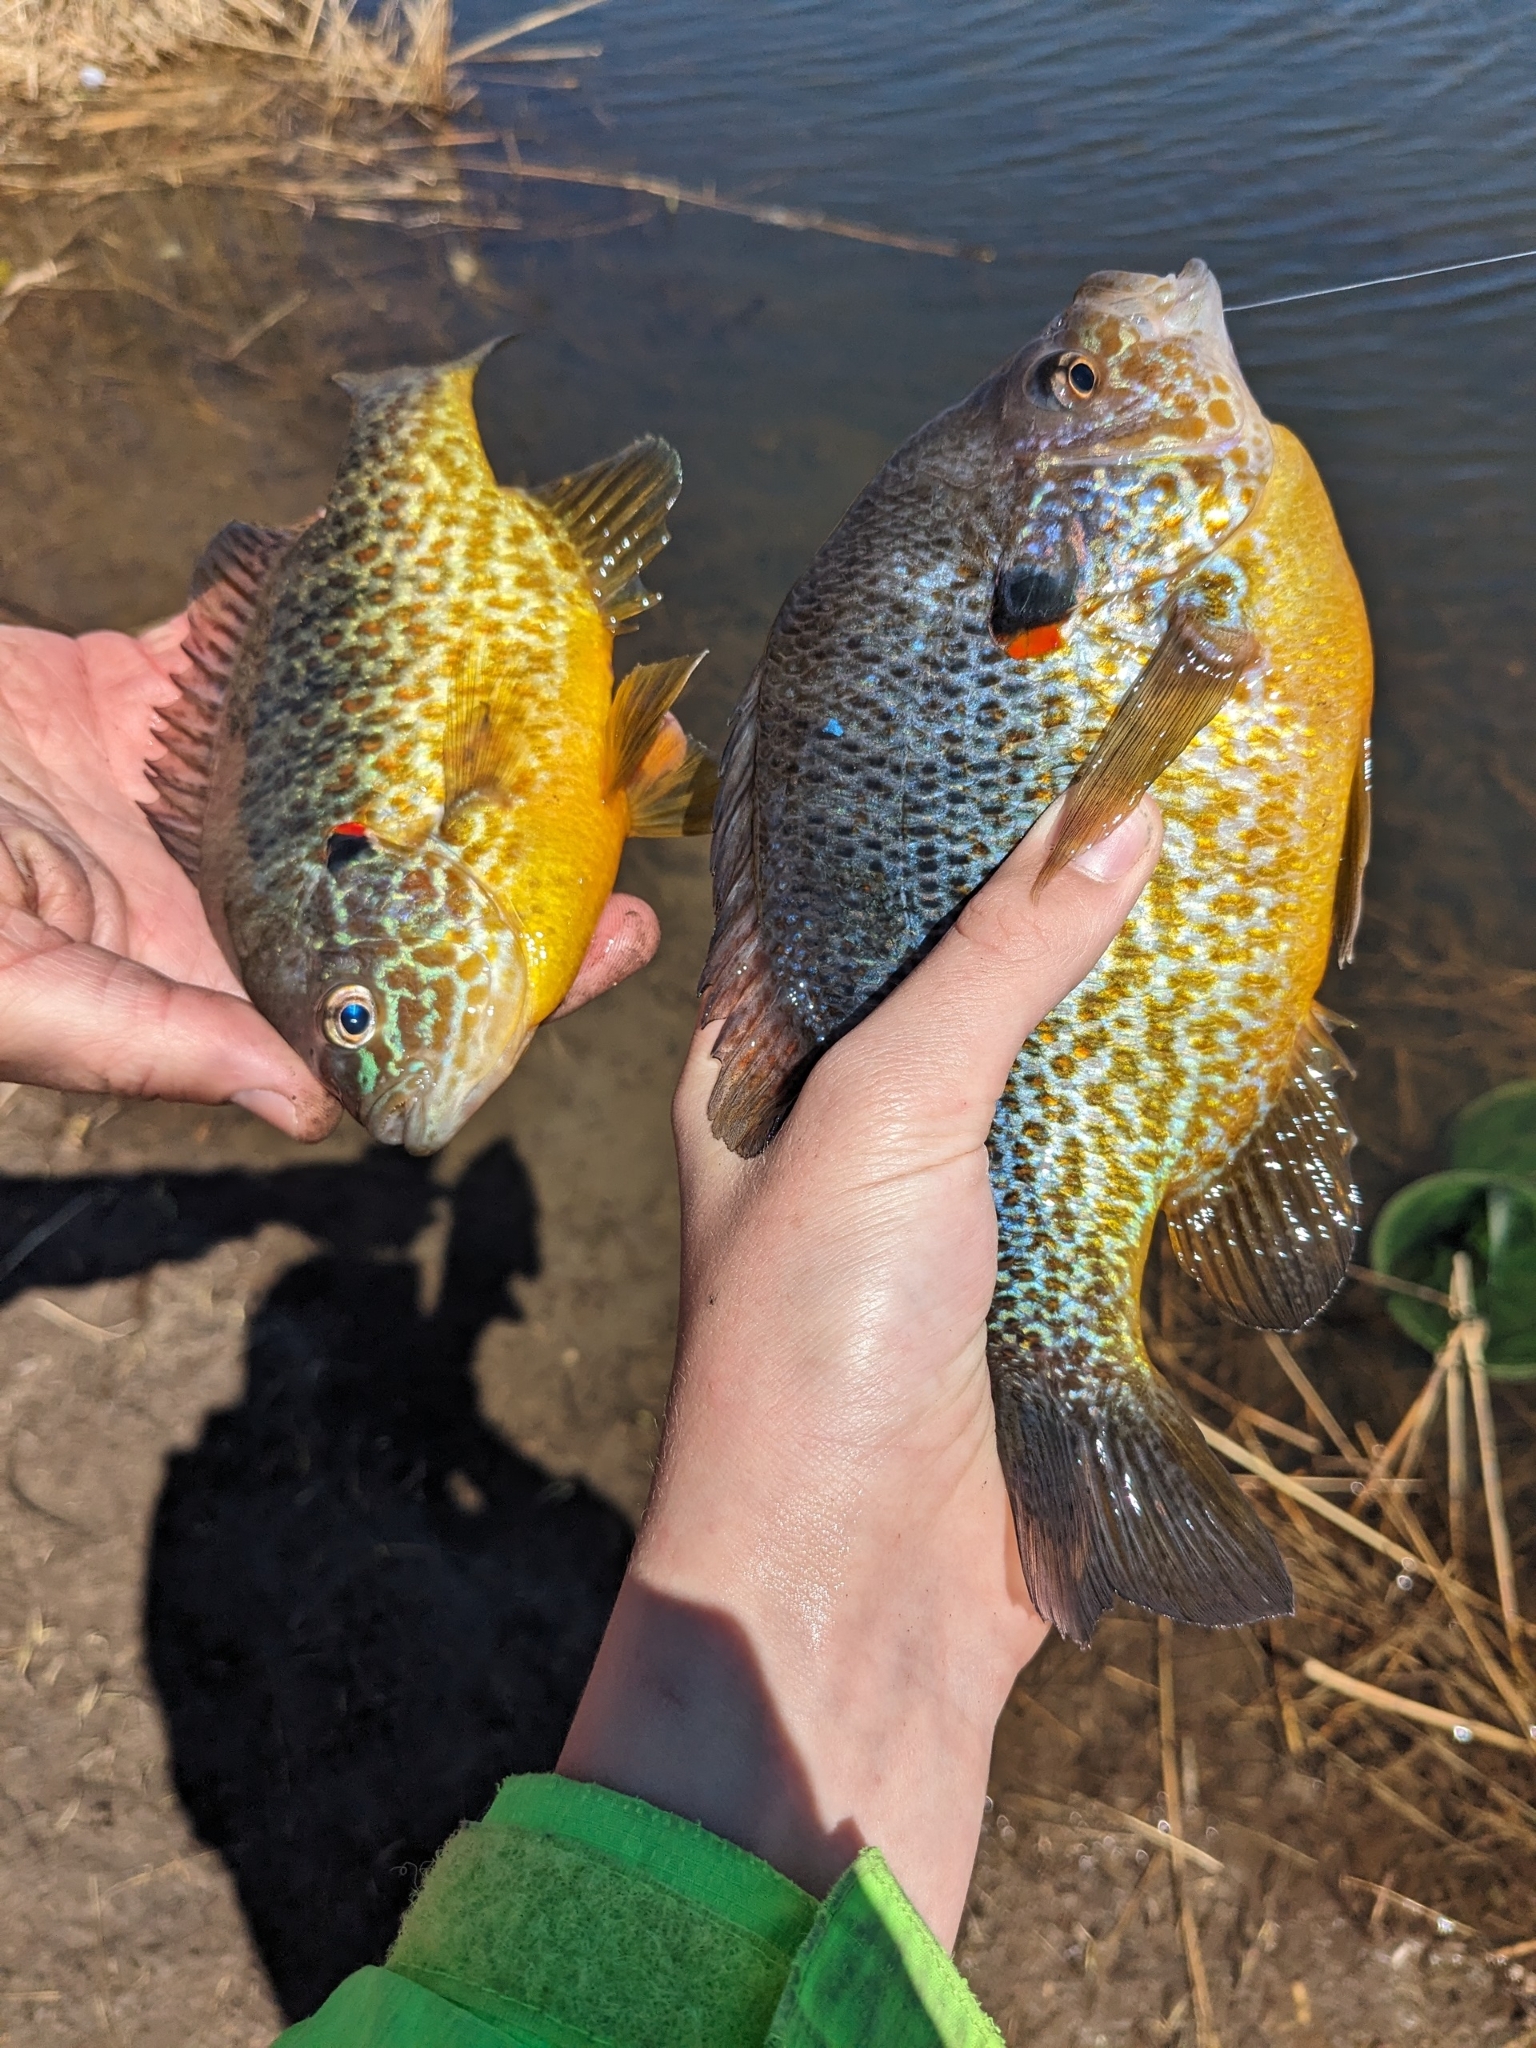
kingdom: Animalia
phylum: Chordata
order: Perciformes
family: Centrarchidae
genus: Lepomis
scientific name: Lepomis gibbosus
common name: Pumpkinseed
